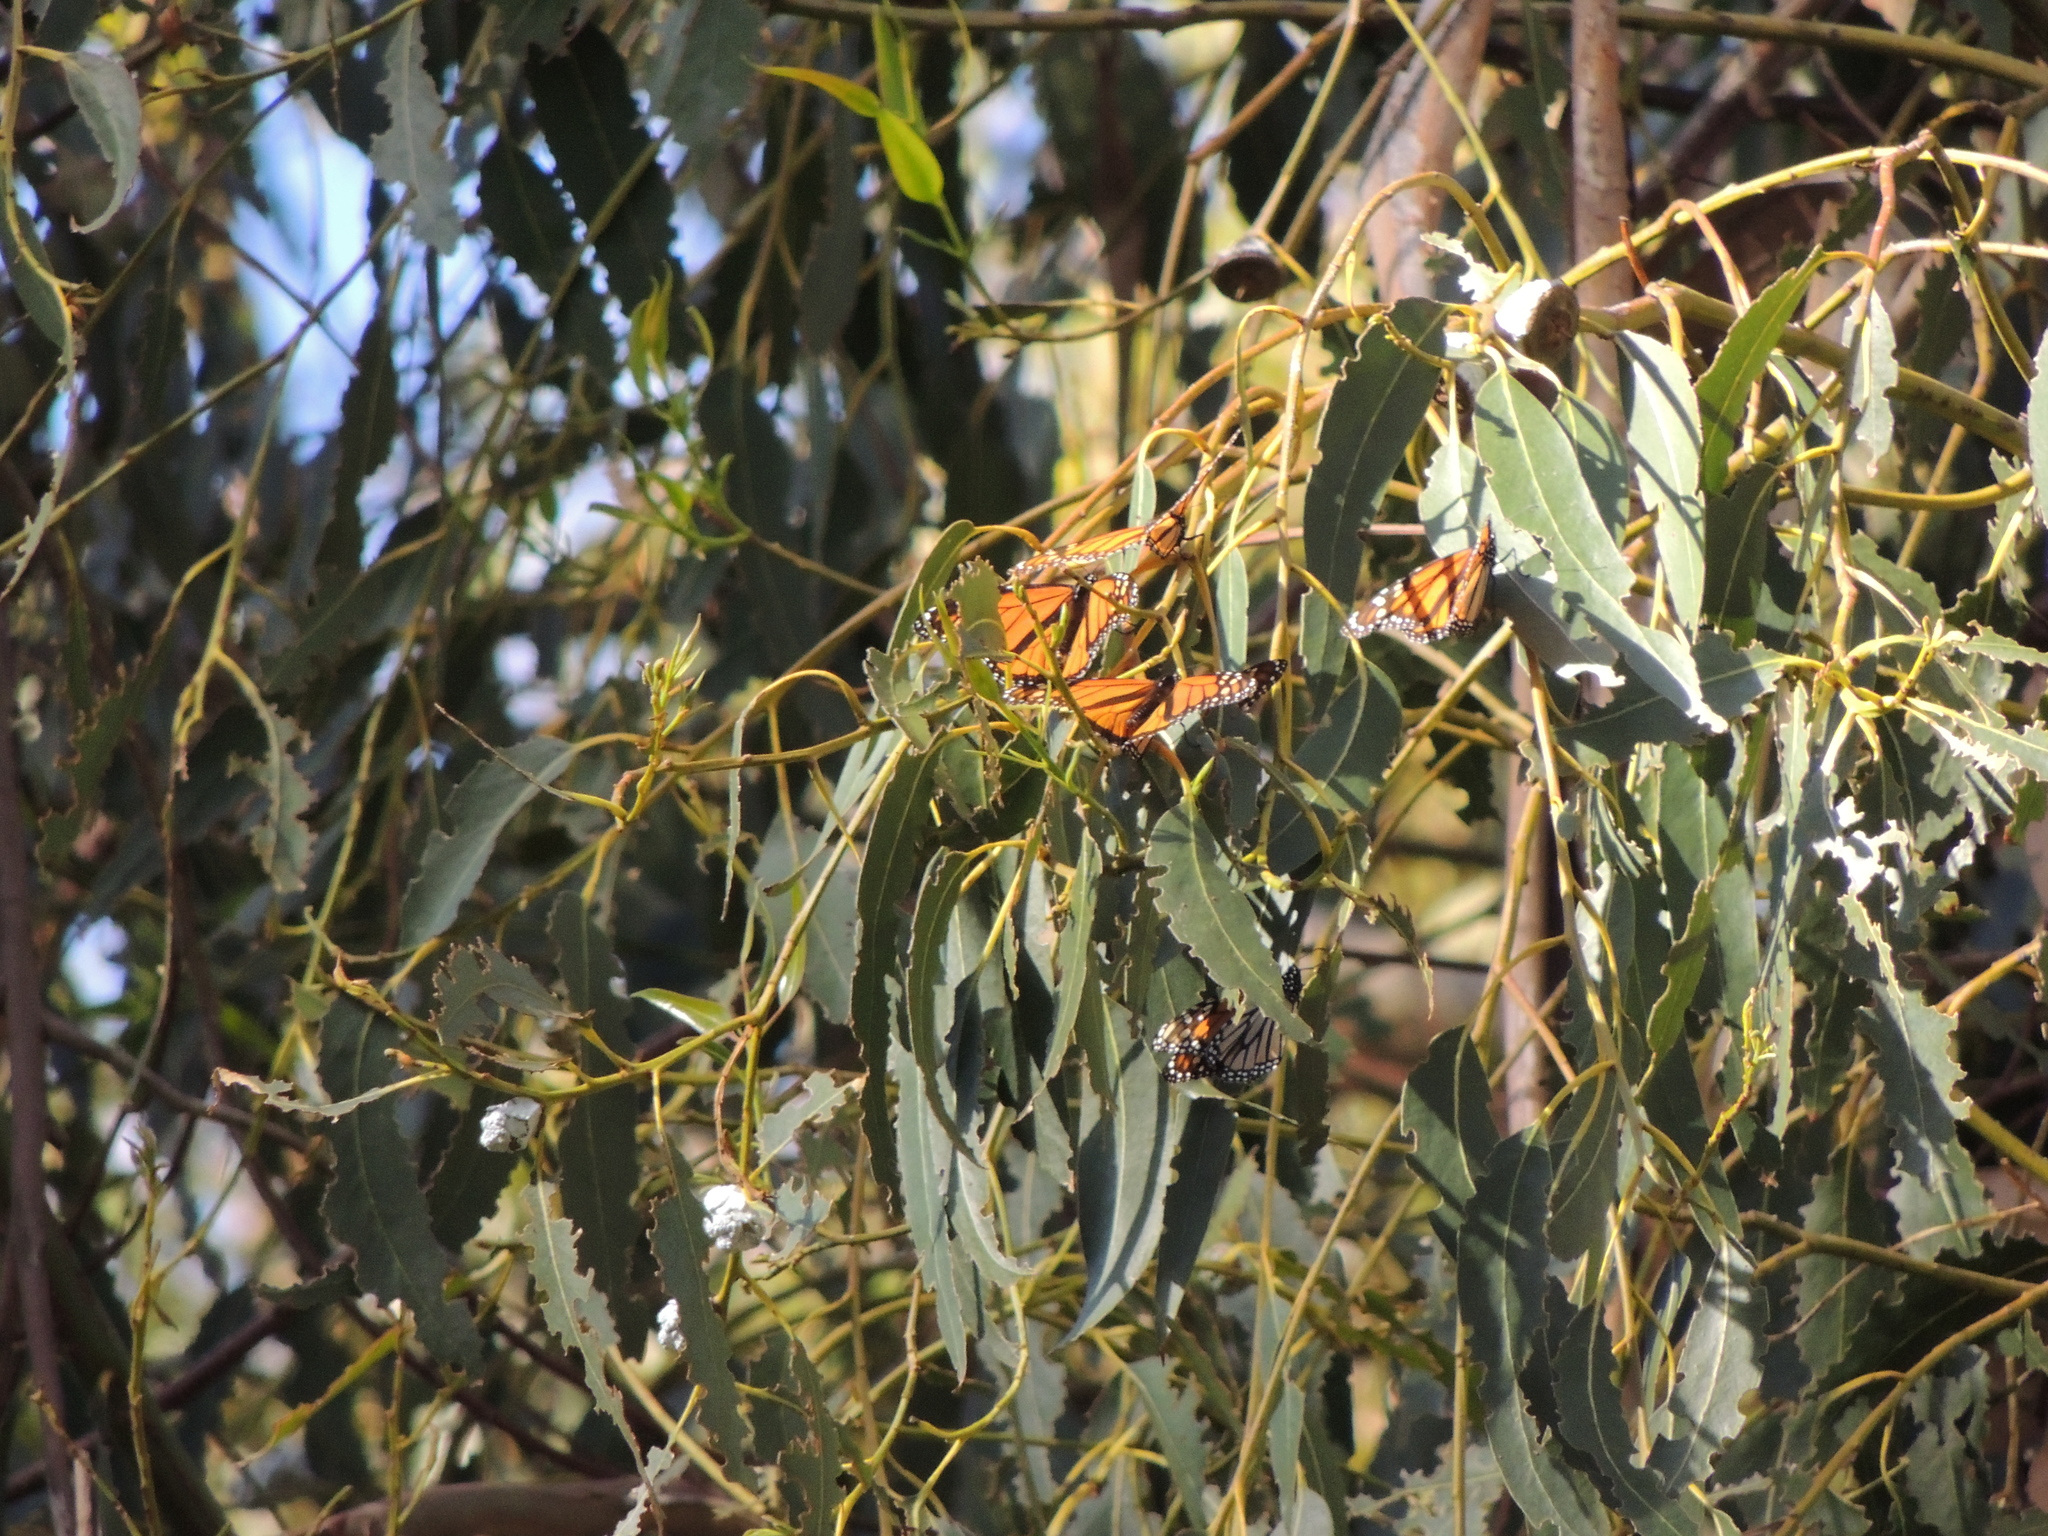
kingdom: Animalia
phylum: Arthropoda
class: Insecta
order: Lepidoptera
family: Nymphalidae
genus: Danaus
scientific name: Danaus plexippus
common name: Monarch
